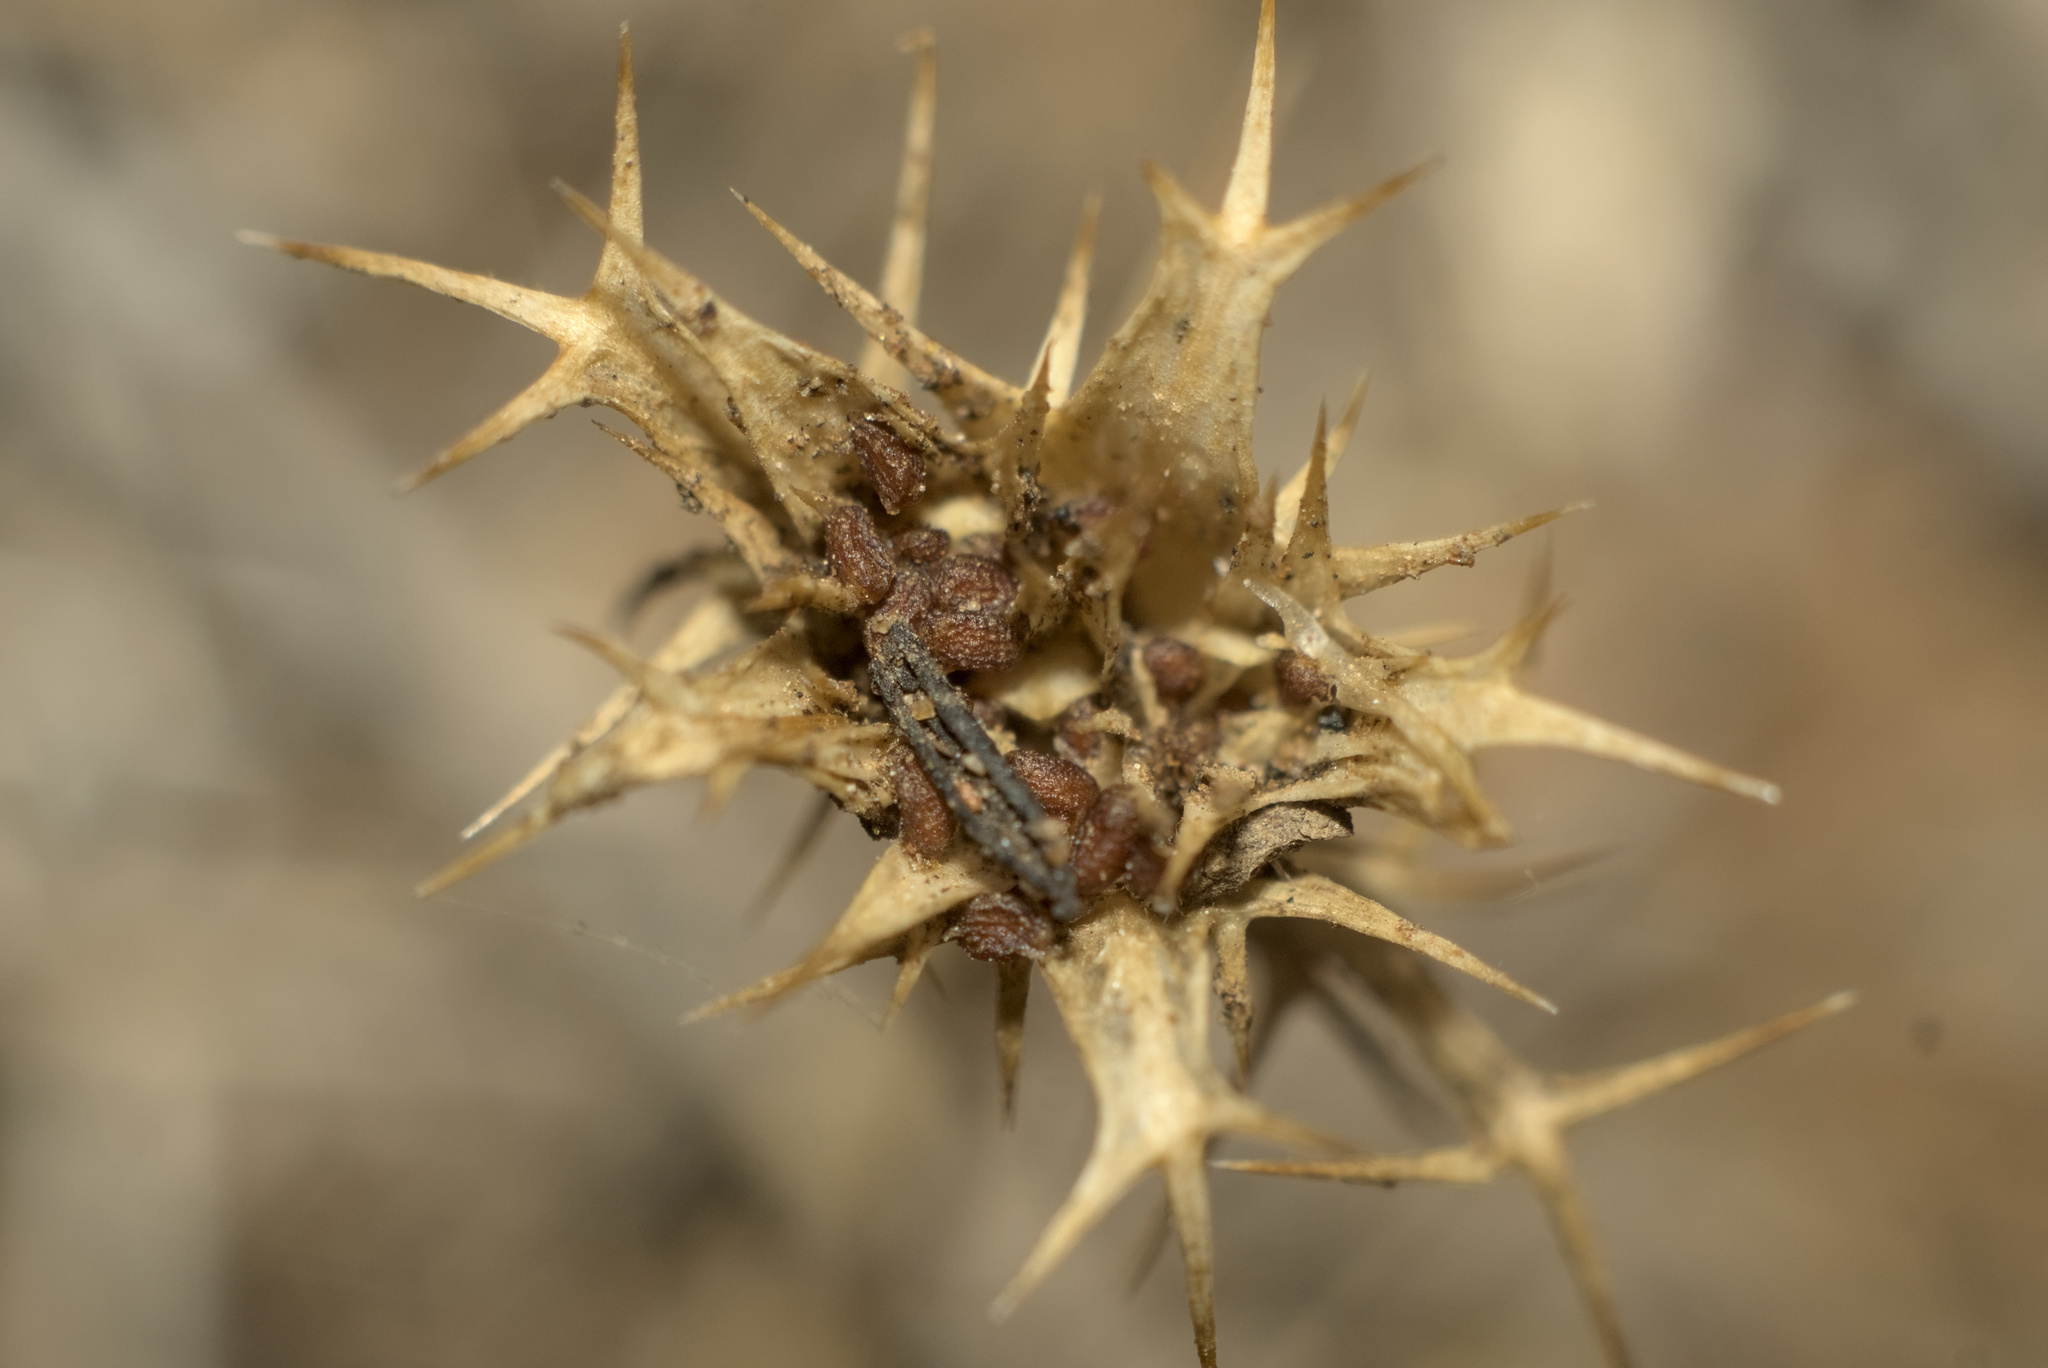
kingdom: Plantae
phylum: Tracheophyta
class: Magnoliopsida
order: Ericales
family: Polemoniaceae
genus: Navarretia
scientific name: Navarretia hamata
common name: Hooked navarretia
